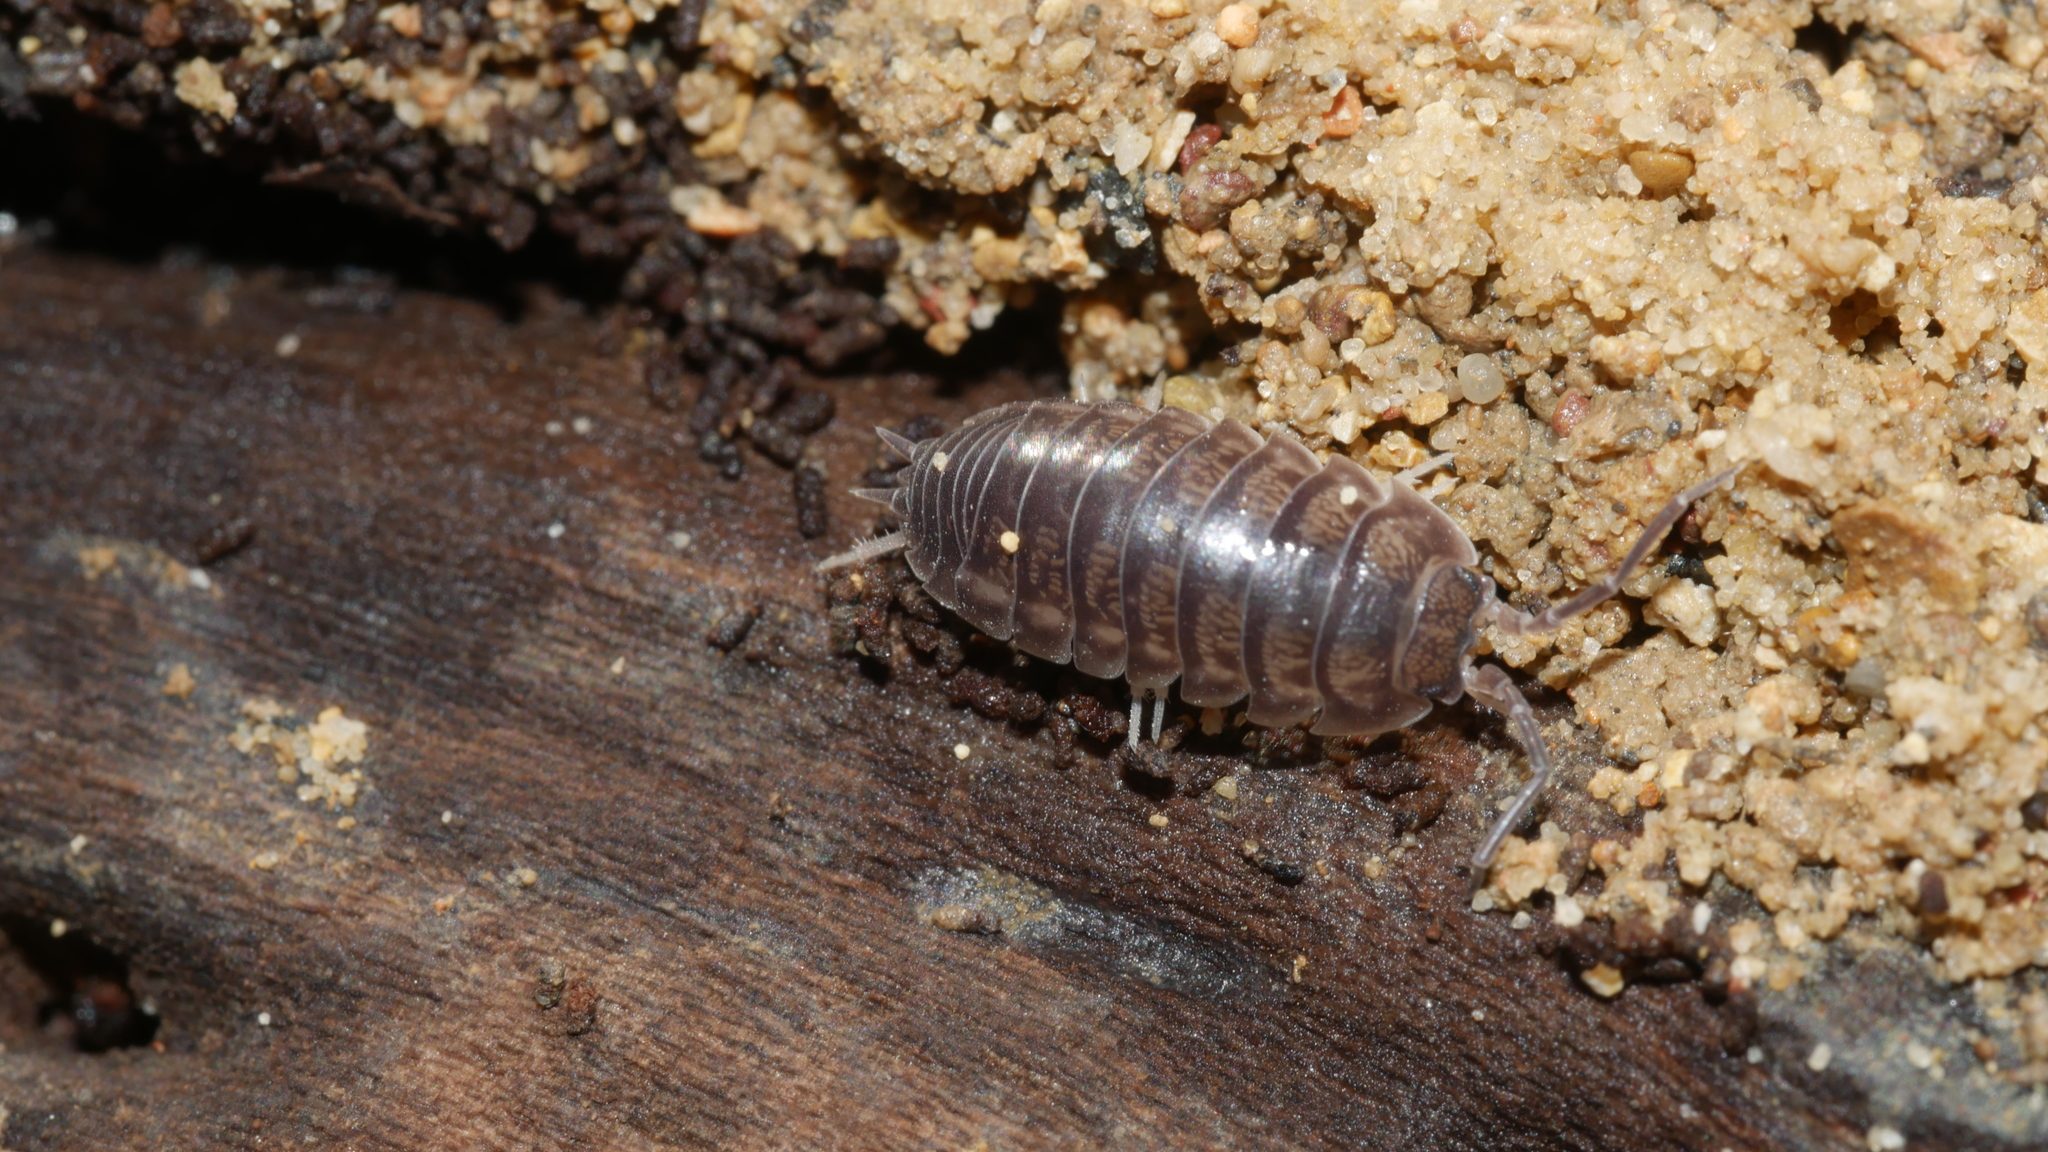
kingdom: Animalia
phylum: Arthropoda
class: Malacostraca
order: Isopoda
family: Cylisticidae
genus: Cylisticus
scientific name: Cylisticus convexus
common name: Curly woodlouse
